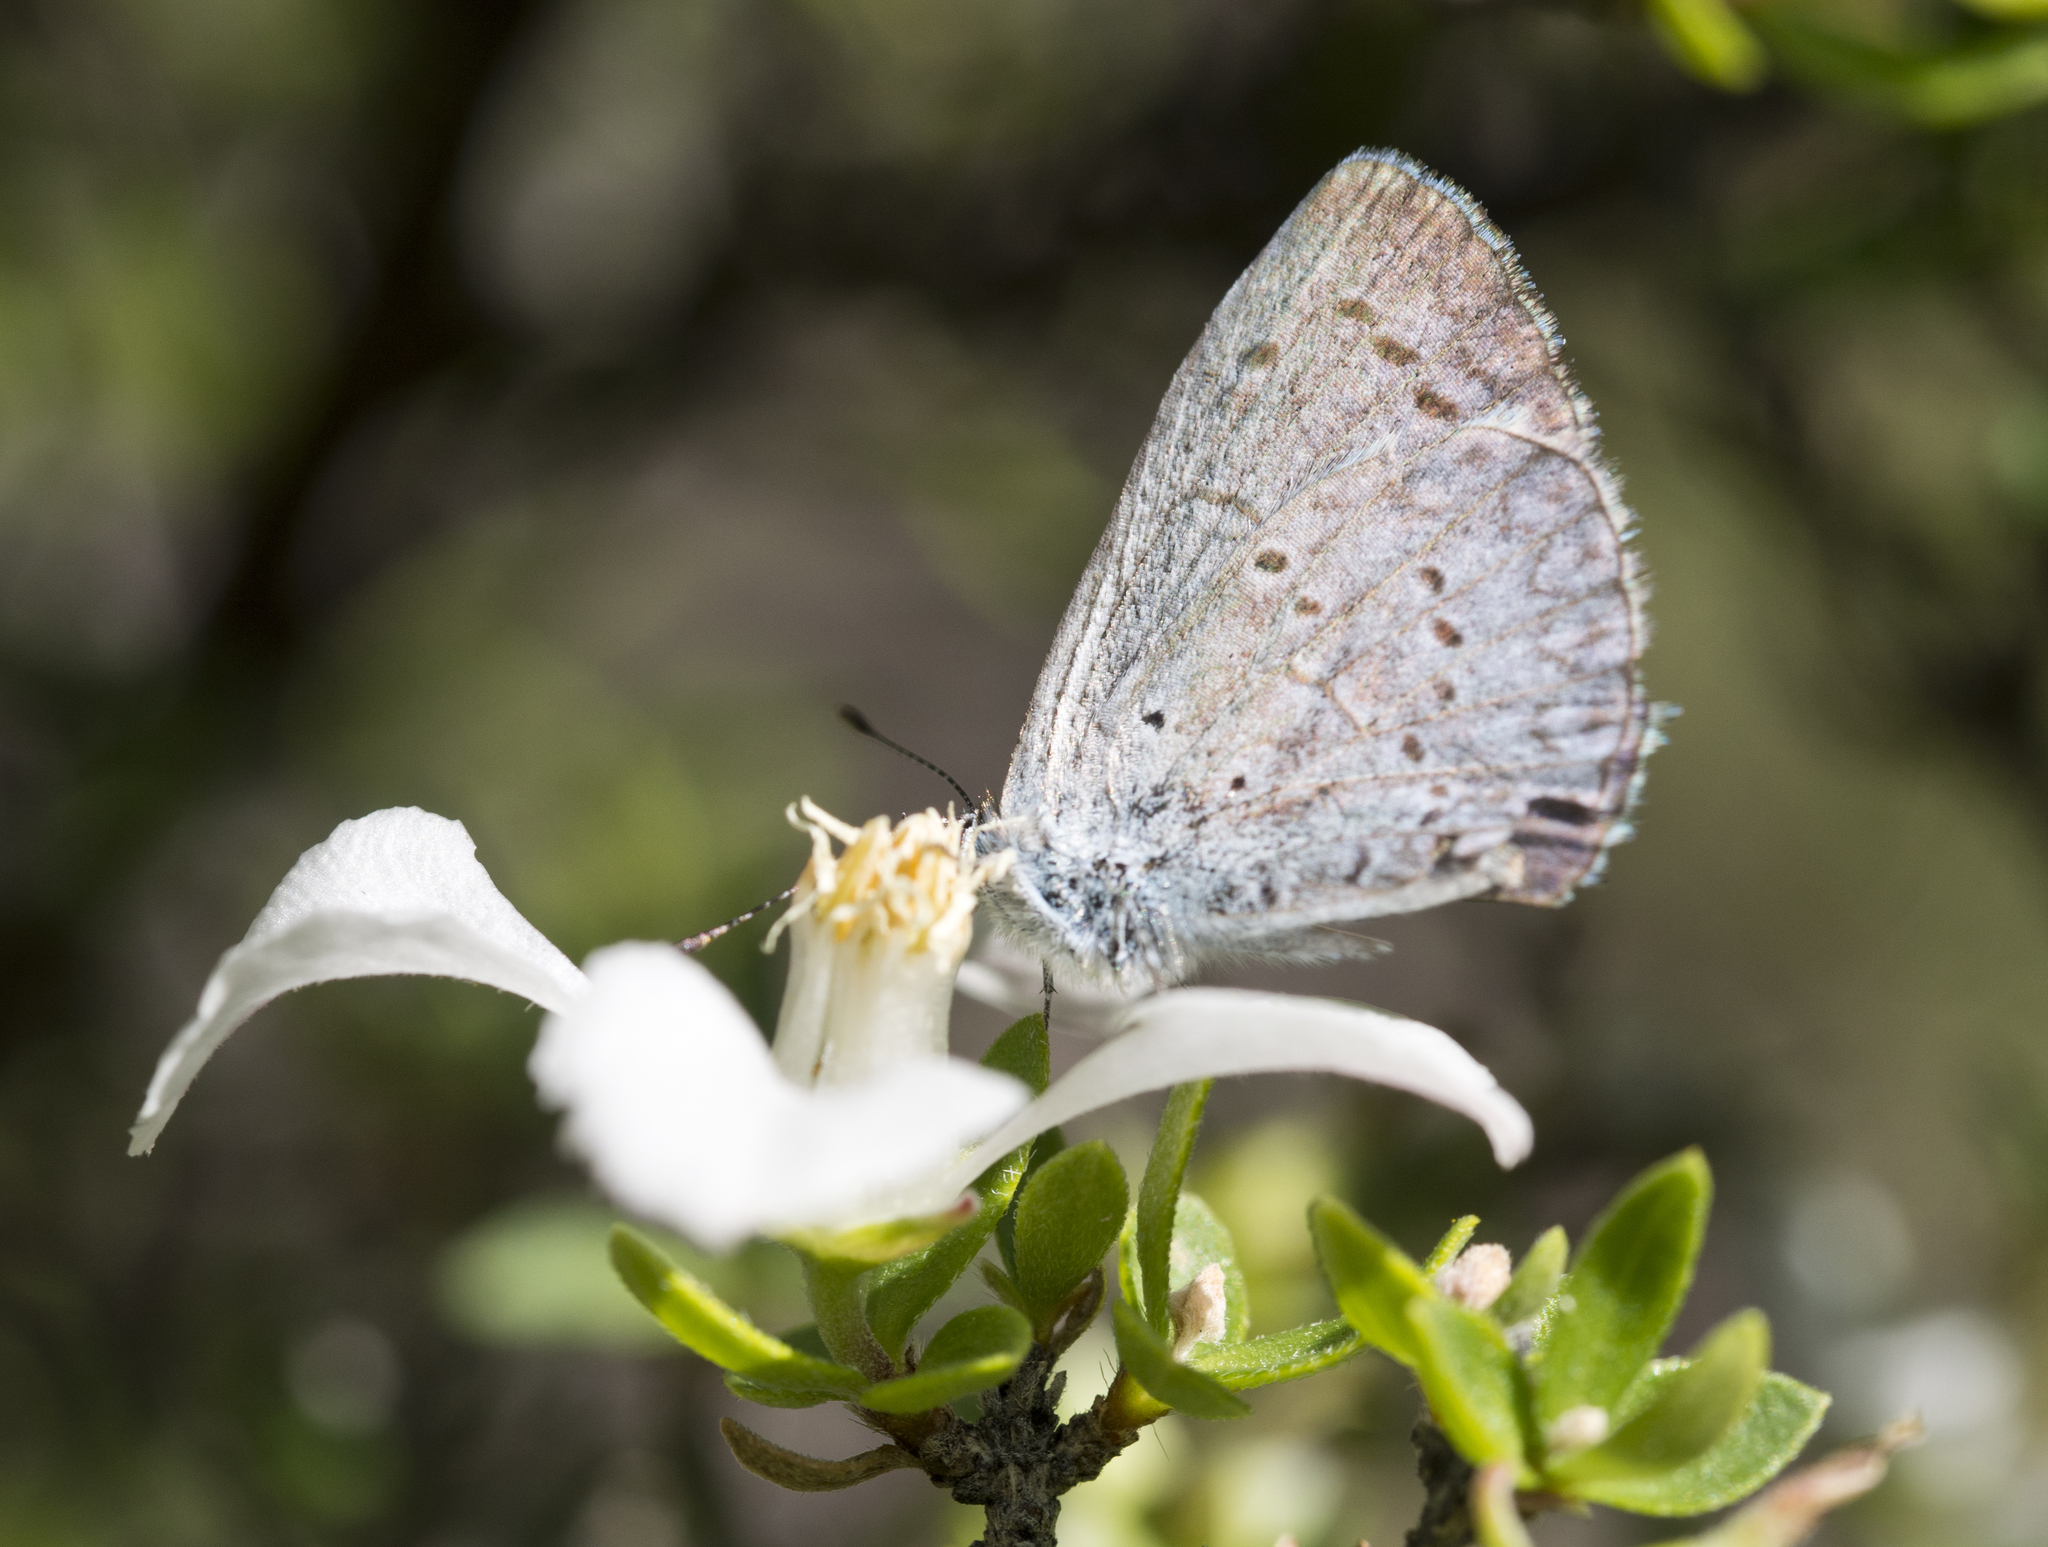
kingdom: Animalia
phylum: Arthropoda
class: Insecta
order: Lepidoptera
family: Lycaenidae
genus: Celastrina
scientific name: Celastrina argiolus
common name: Holly blue
